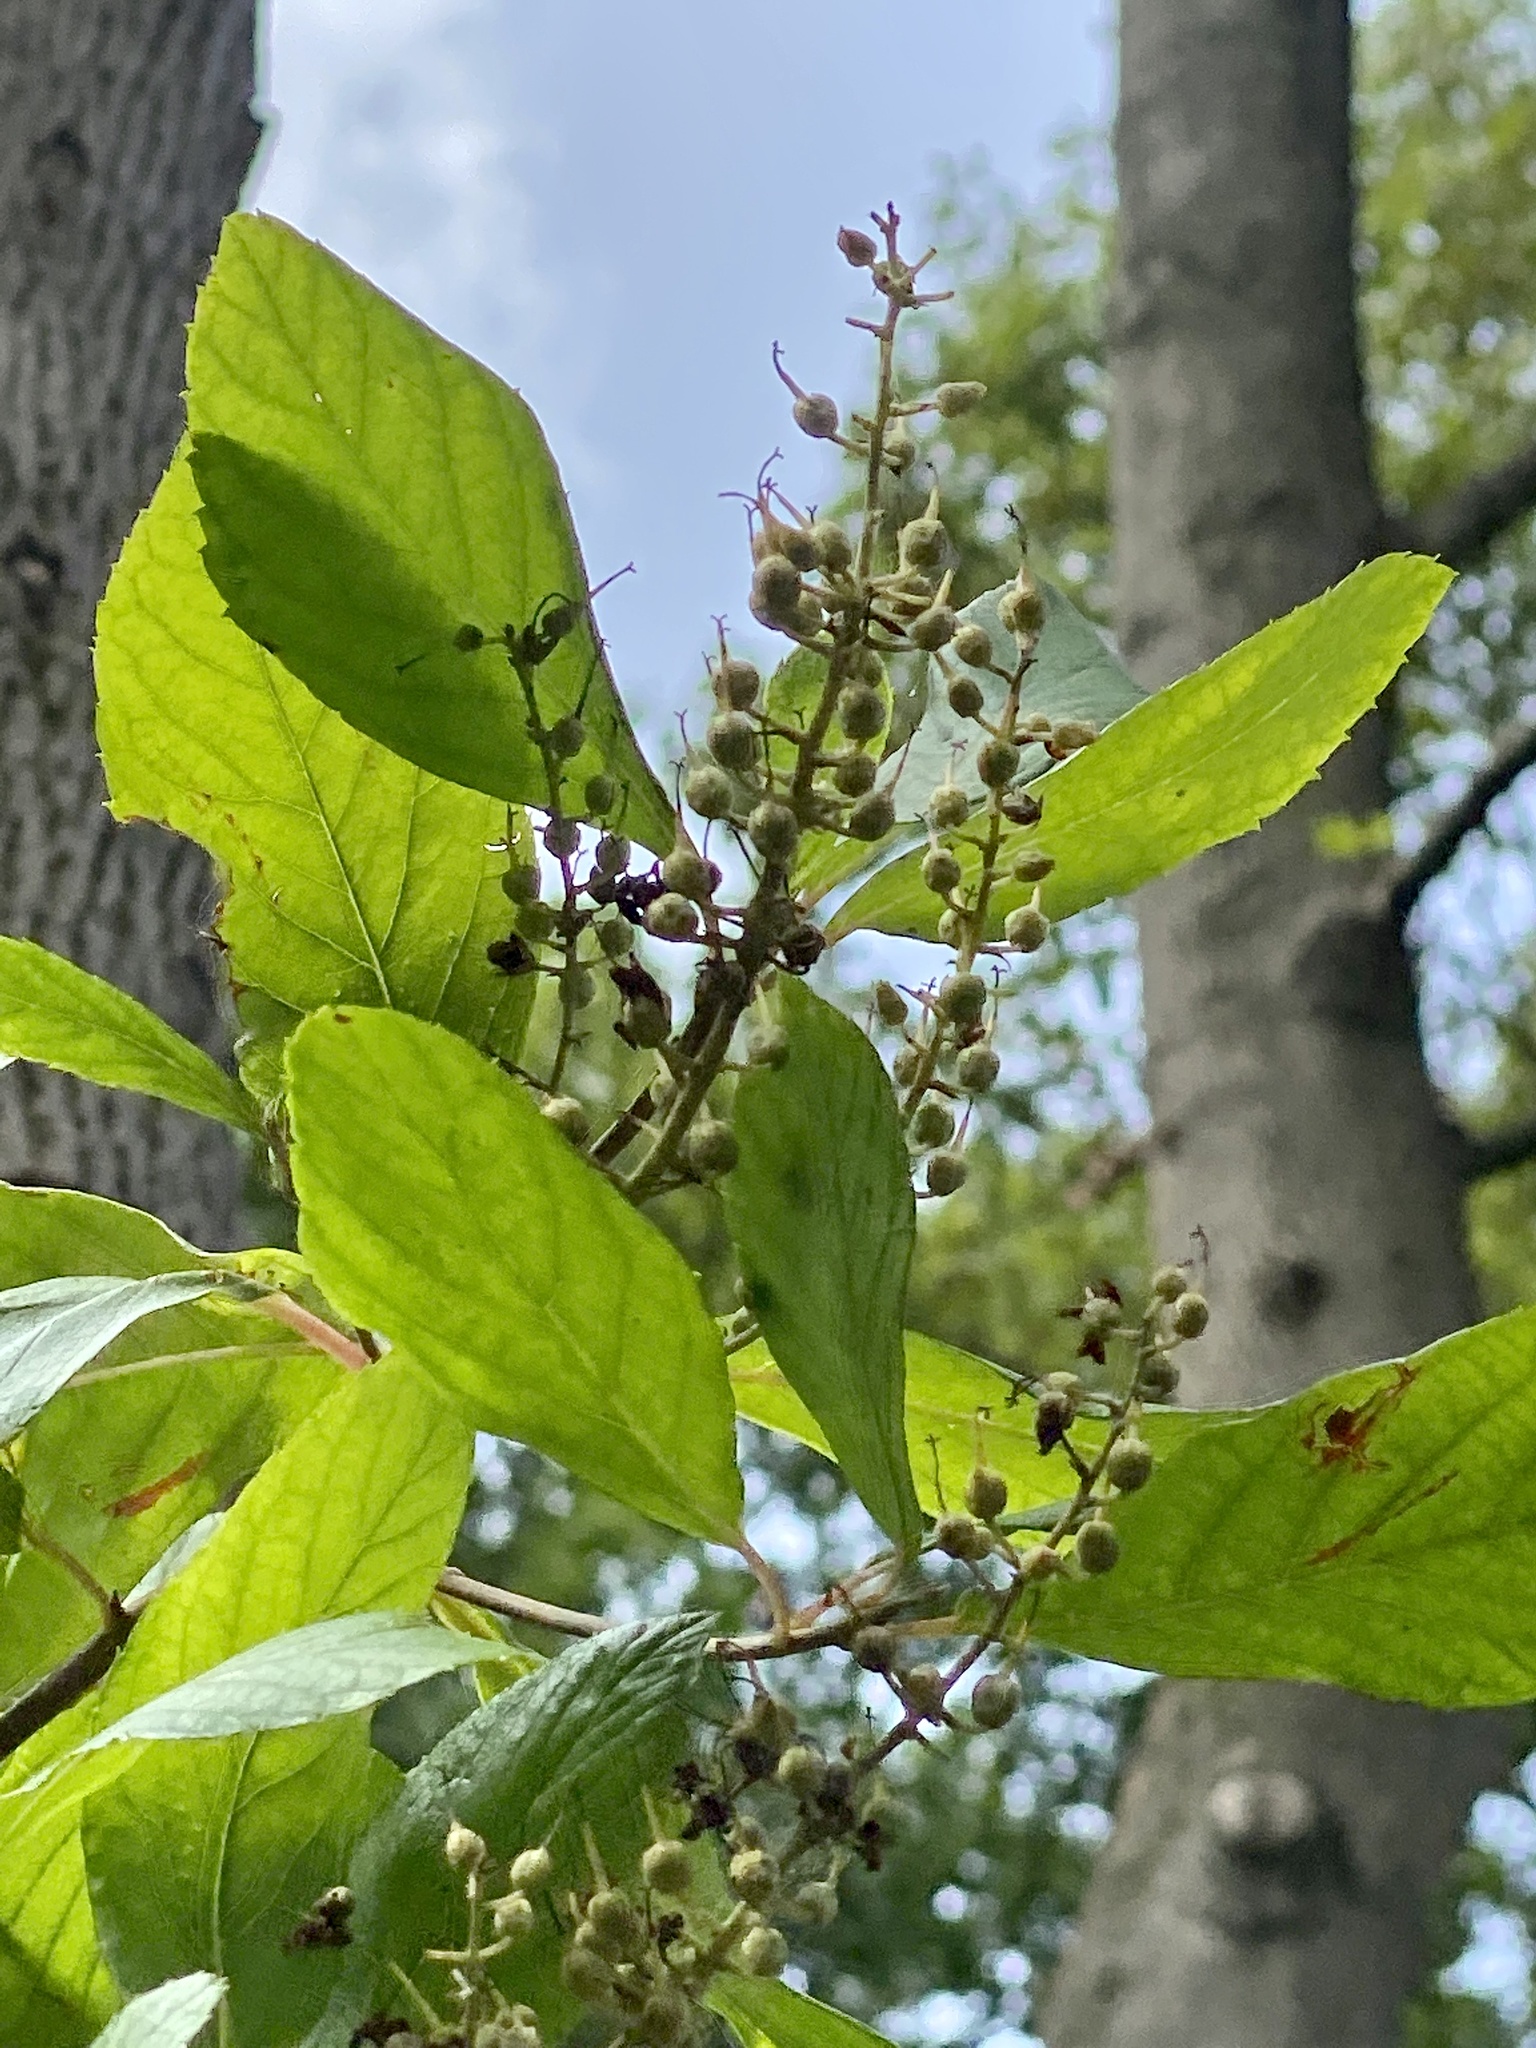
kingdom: Plantae
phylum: Tracheophyta
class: Magnoliopsida
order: Ericales
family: Clethraceae
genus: Clethra
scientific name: Clethra alnifolia
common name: Sweet pepperbush
